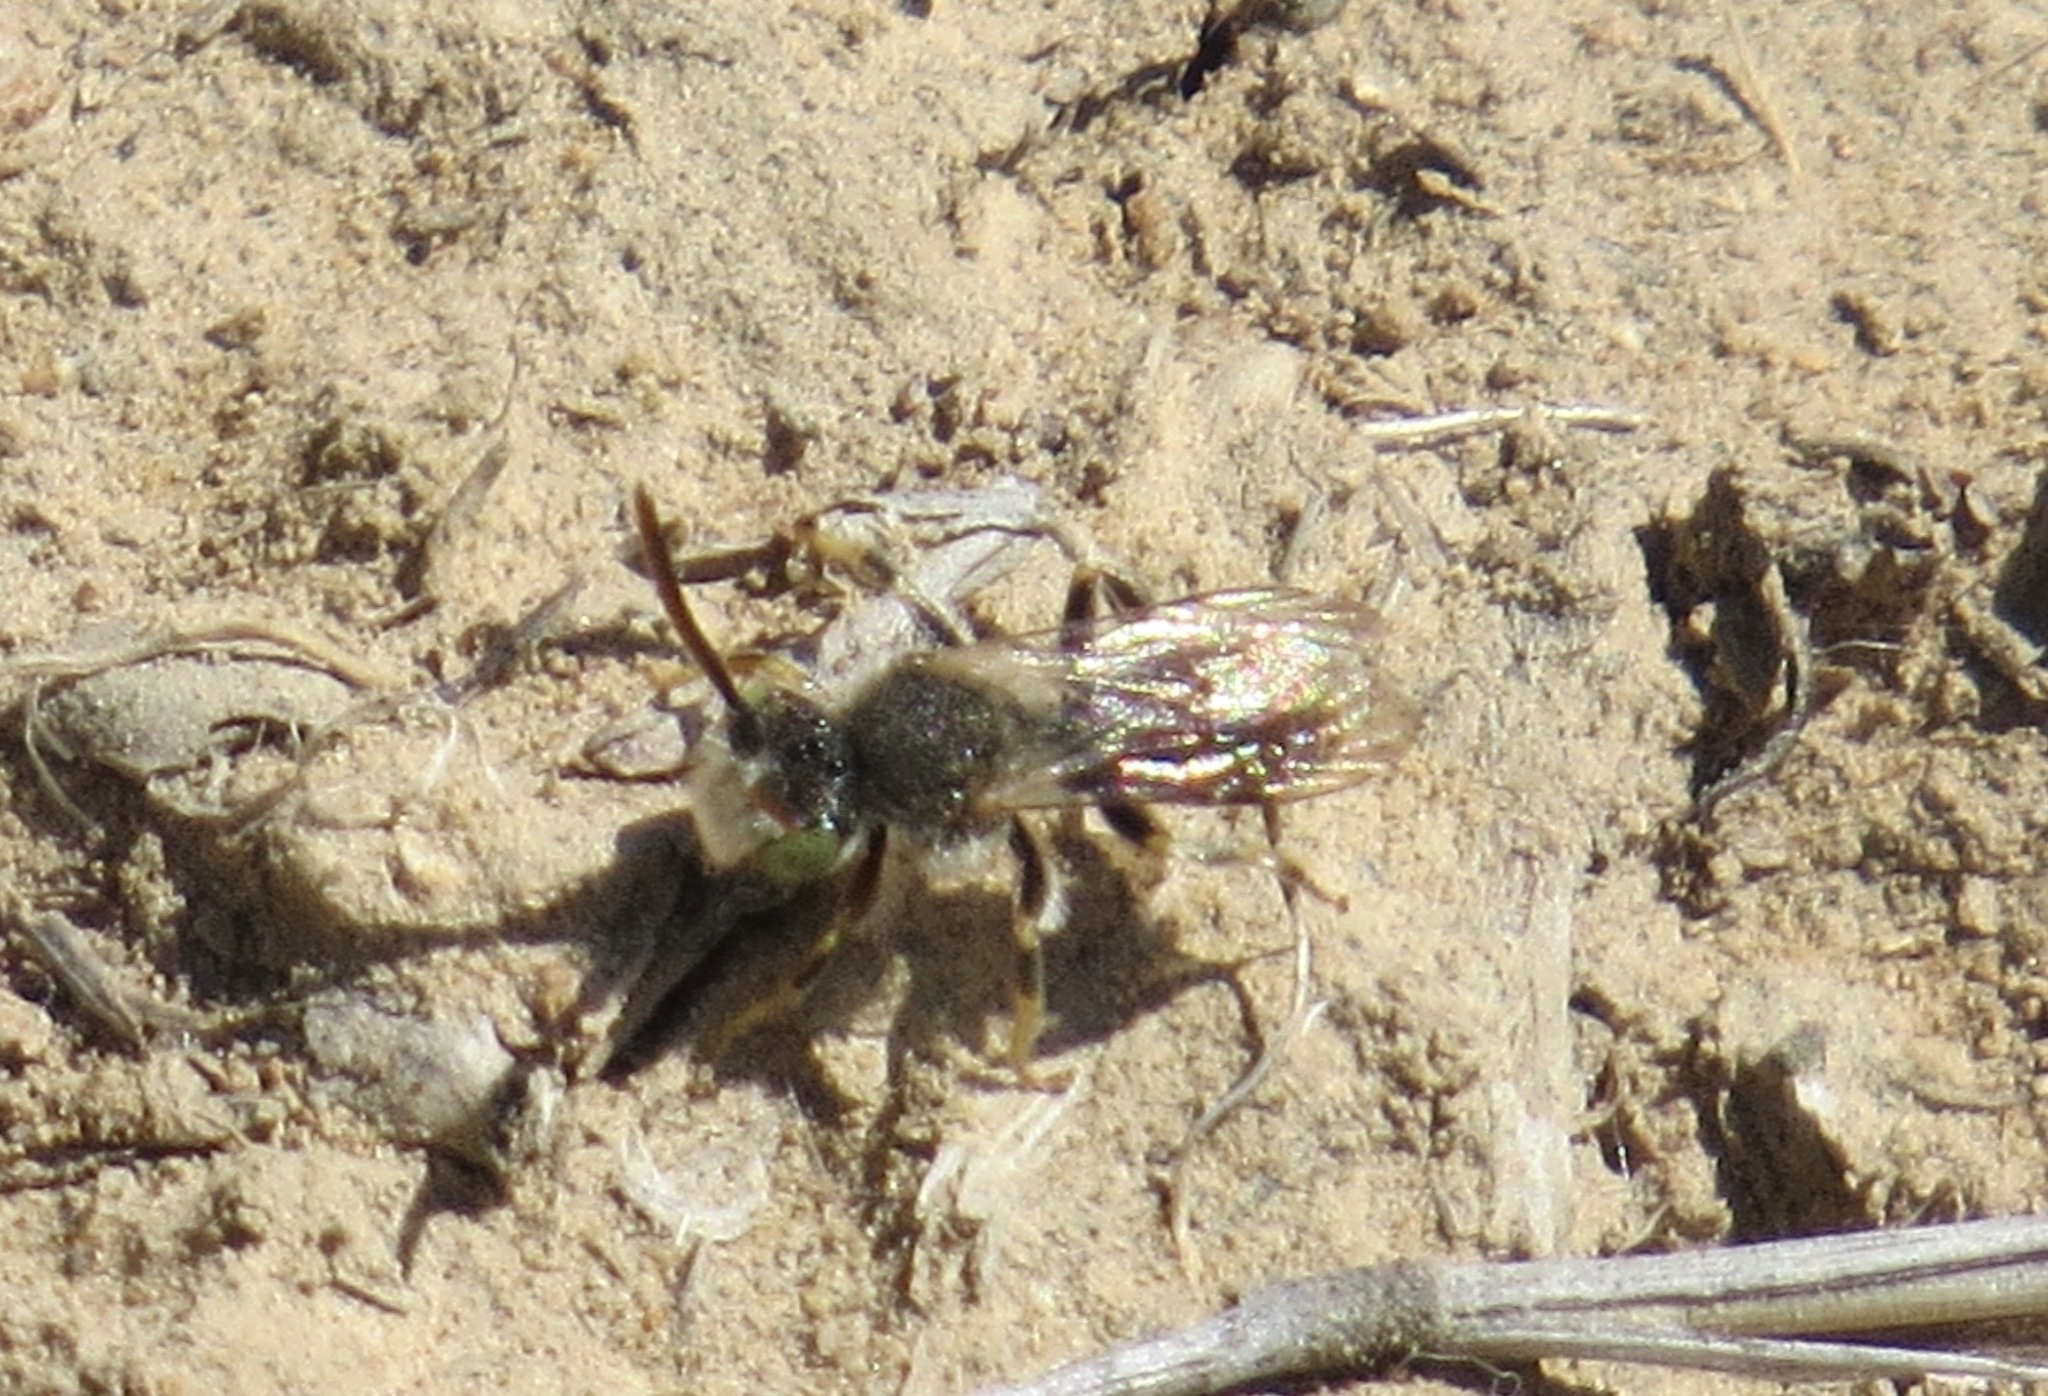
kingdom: Animalia
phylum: Arthropoda
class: Insecta
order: Hymenoptera
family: Apidae
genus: Nomada
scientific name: Nomada
